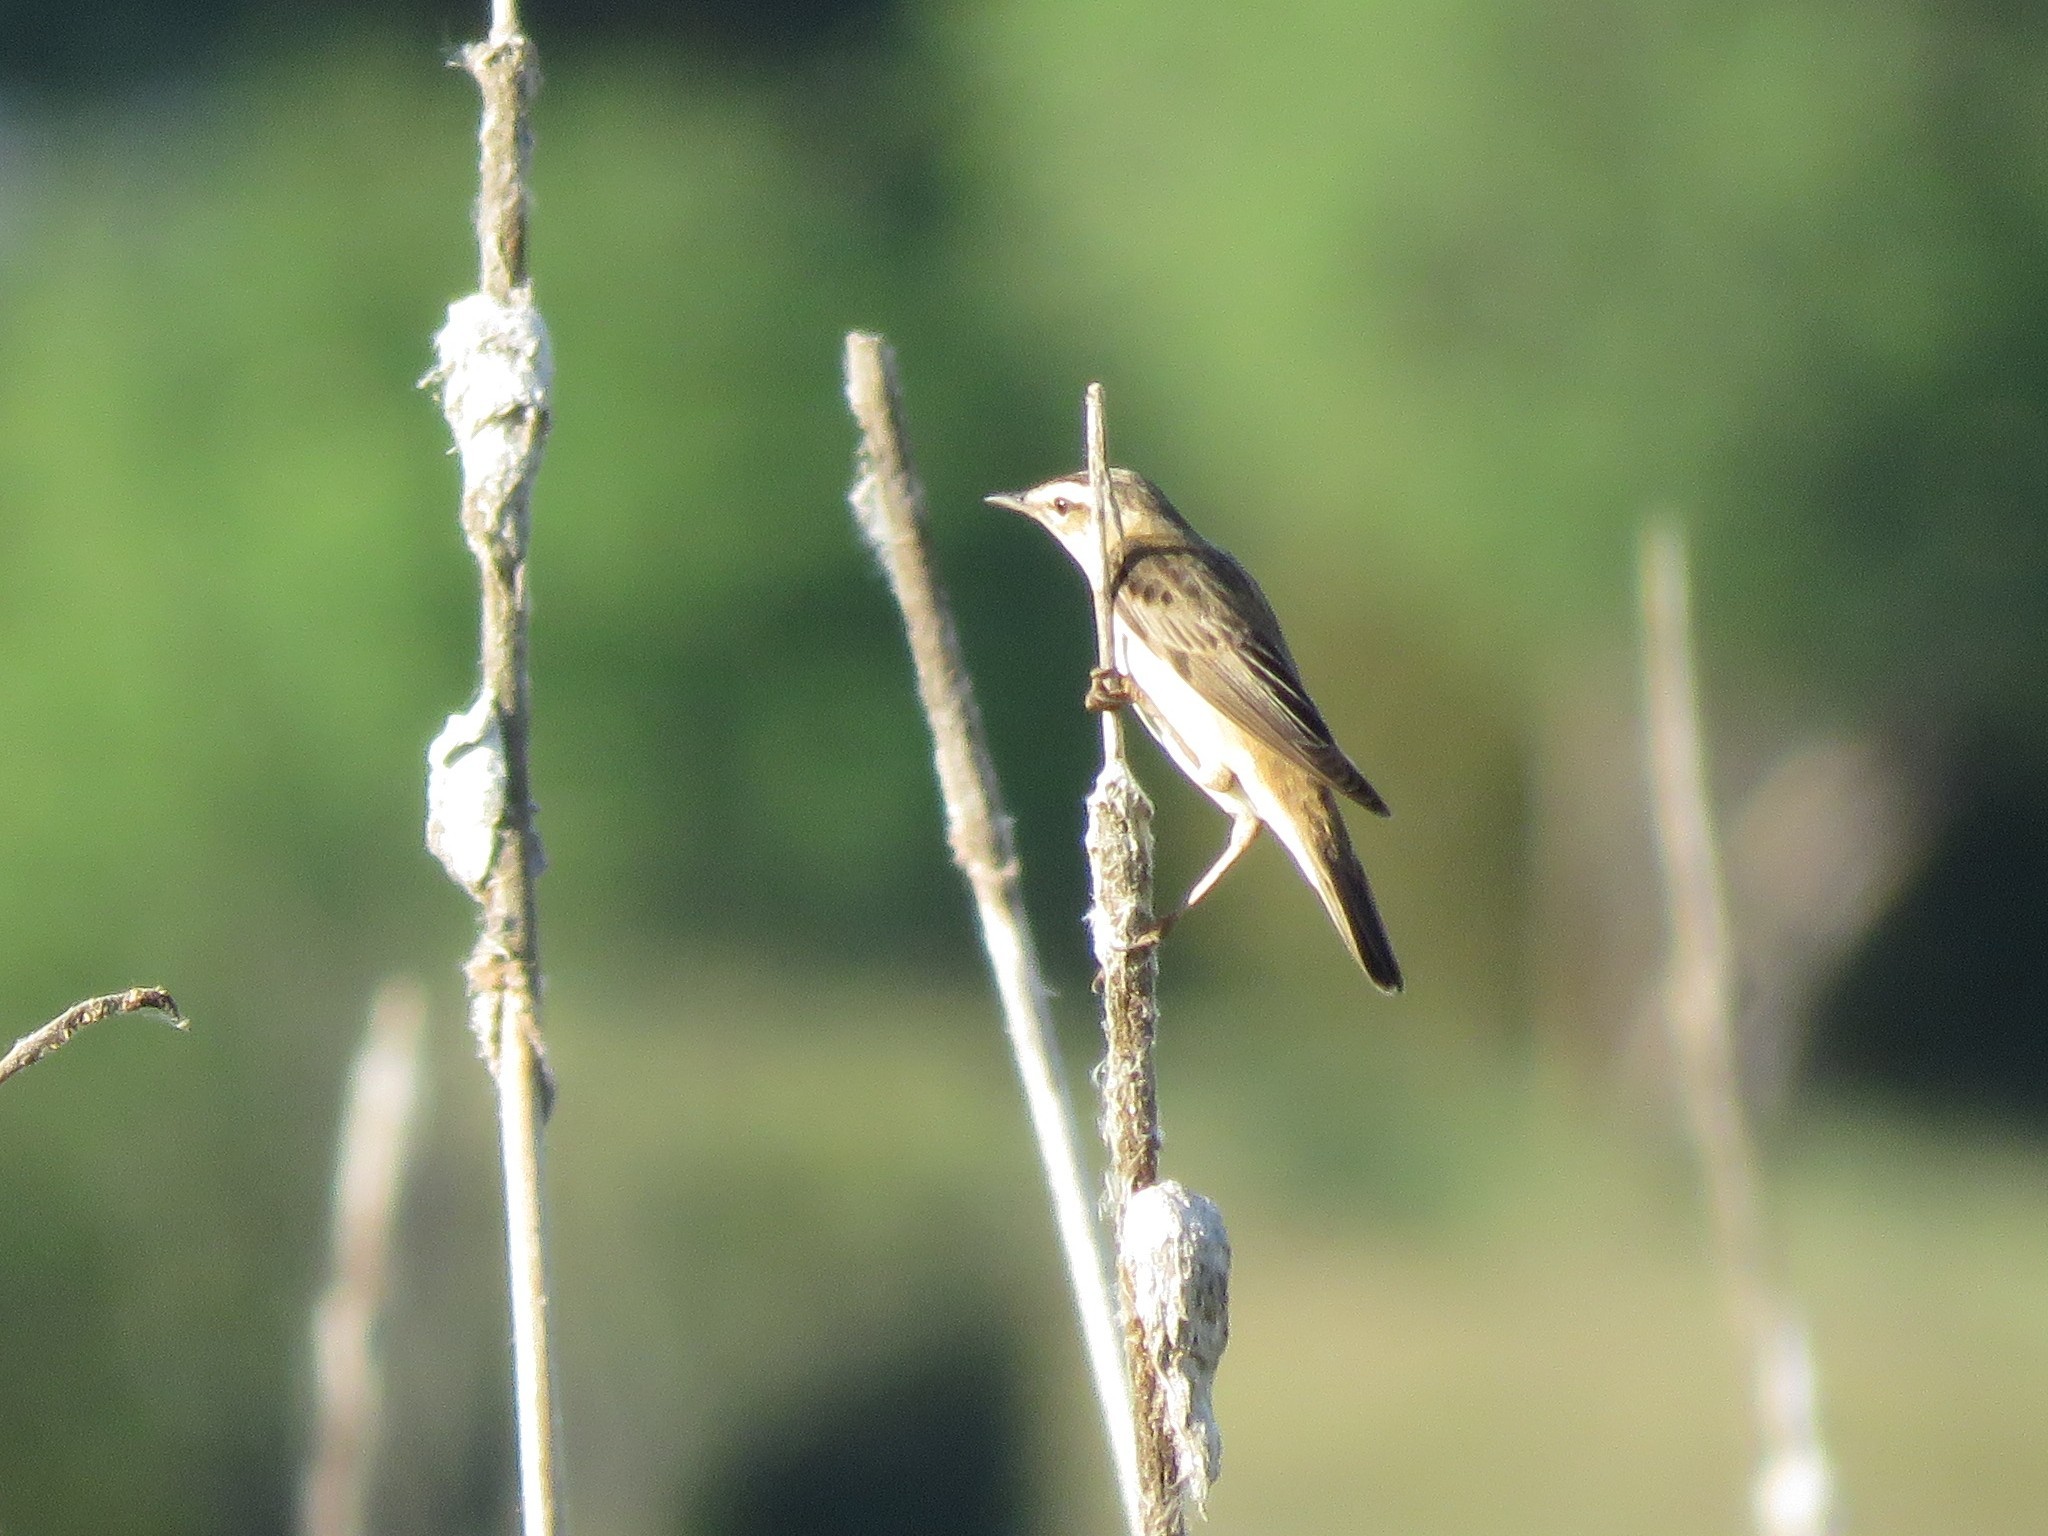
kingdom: Animalia
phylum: Chordata
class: Aves
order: Passeriformes
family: Acrocephalidae
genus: Acrocephalus
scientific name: Acrocephalus schoenobaenus
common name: Sedge warbler
